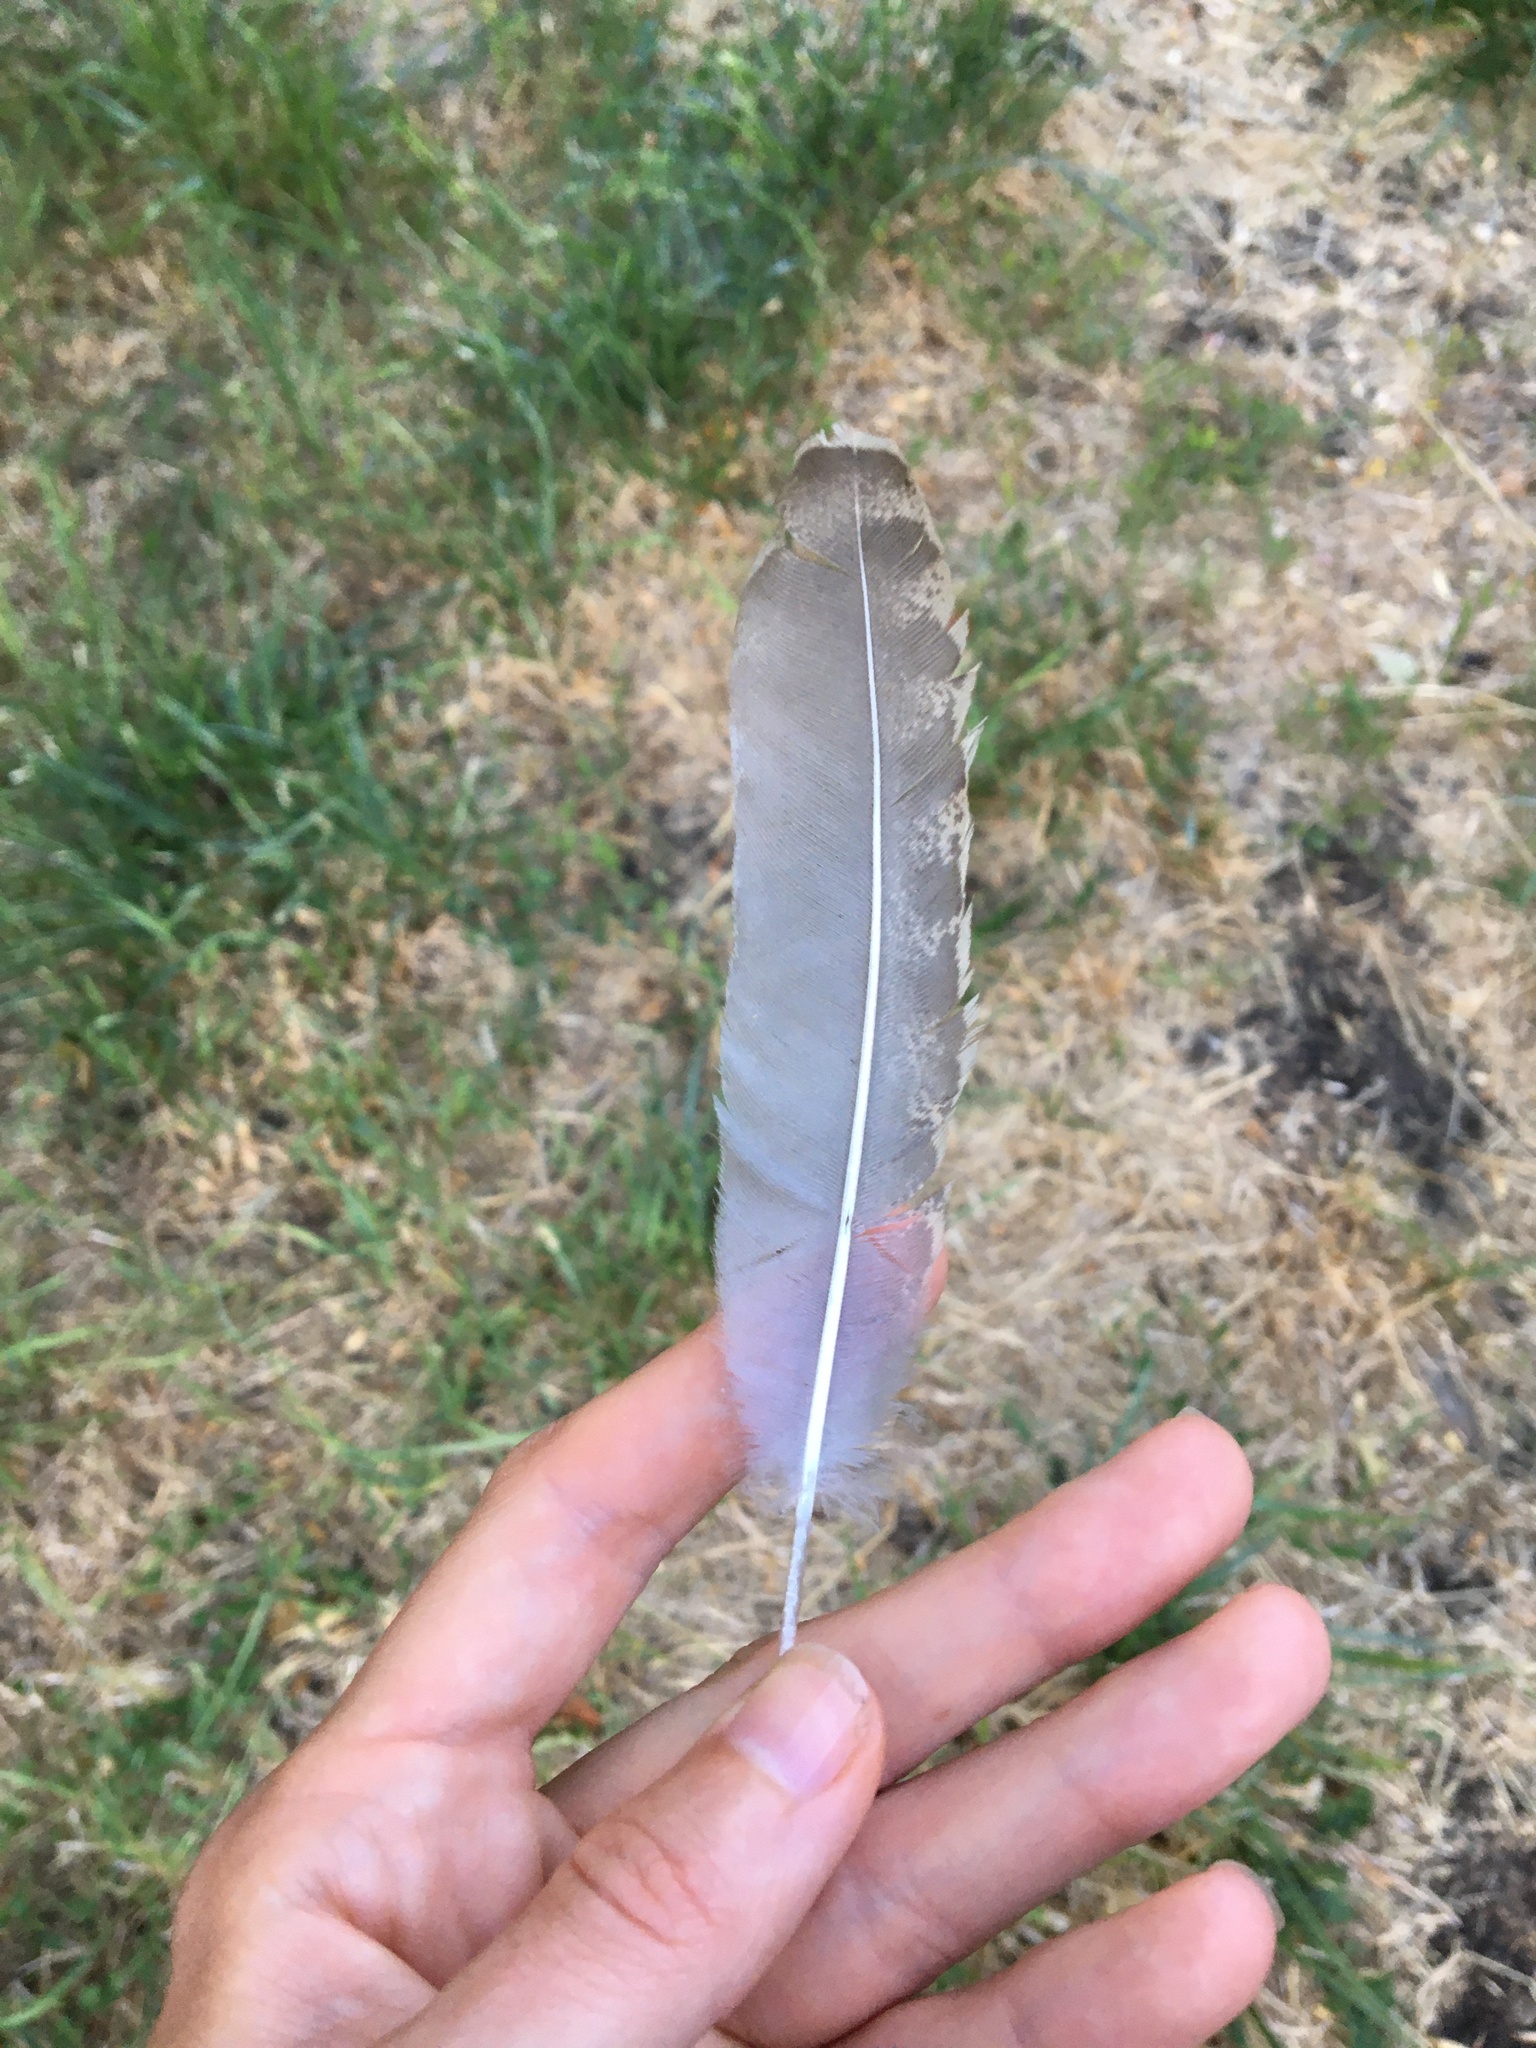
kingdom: Animalia
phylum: Chordata
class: Aves
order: Galliformes
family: Phasianidae
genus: Meleagris
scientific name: Meleagris gallopavo
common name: Wild turkey
